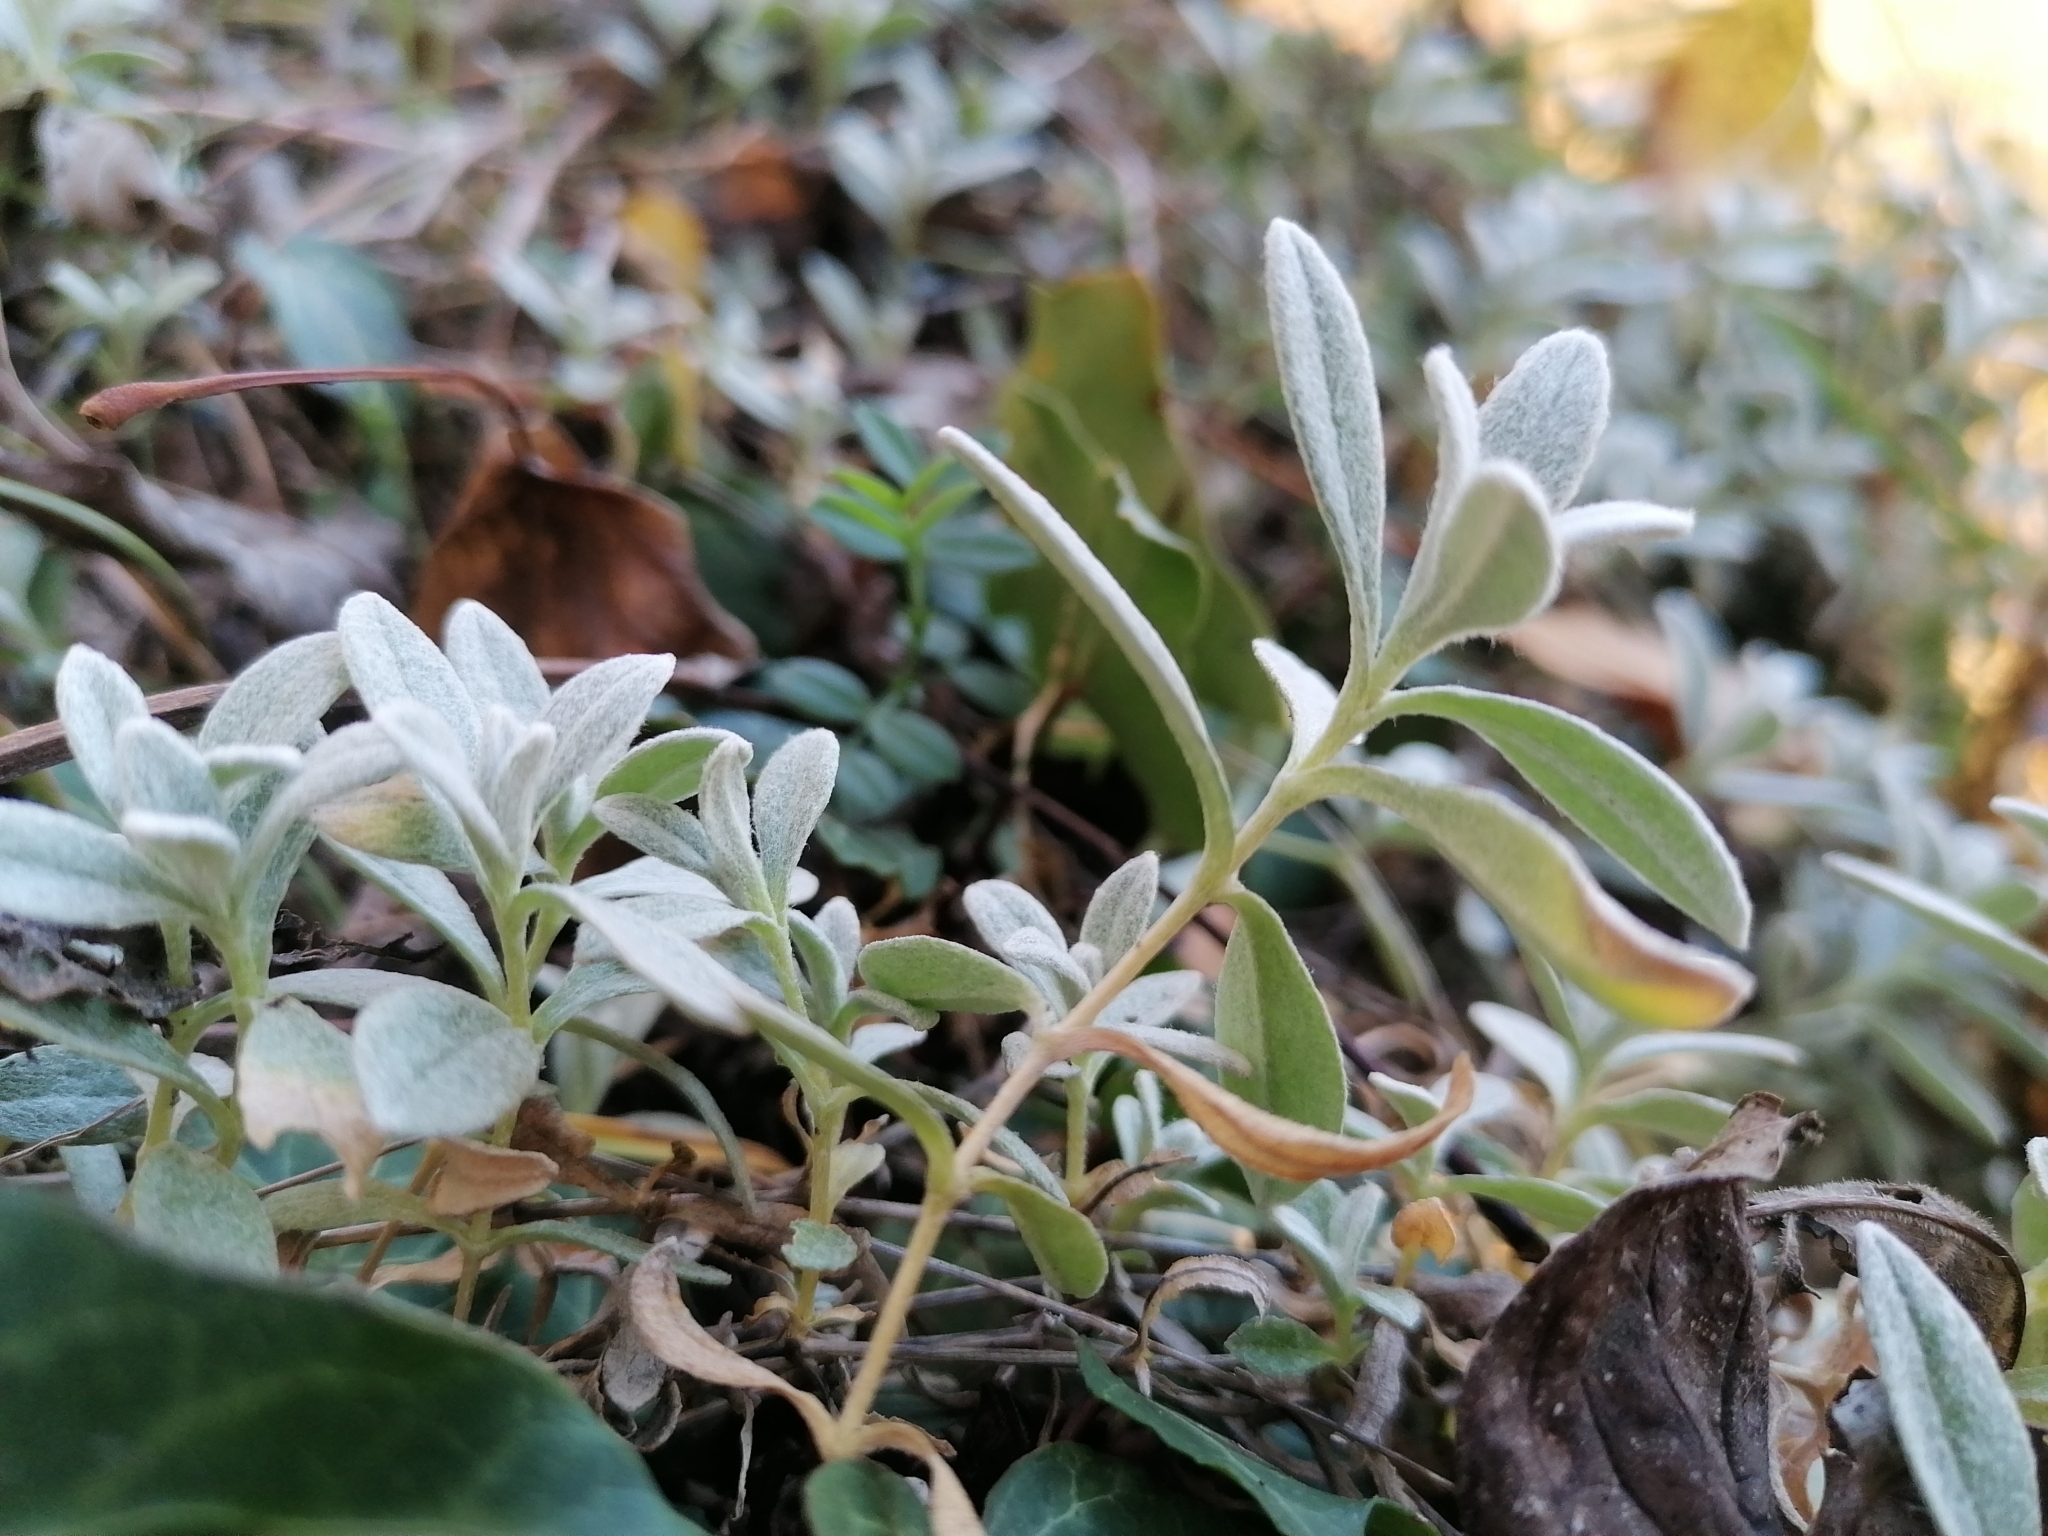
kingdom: Plantae
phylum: Tracheophyta
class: Magnoliopsida
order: Caryophyllales
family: Caryophyllaceae
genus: Cerastium
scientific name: Cerastium tomentosum
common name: Snow-in-summer
